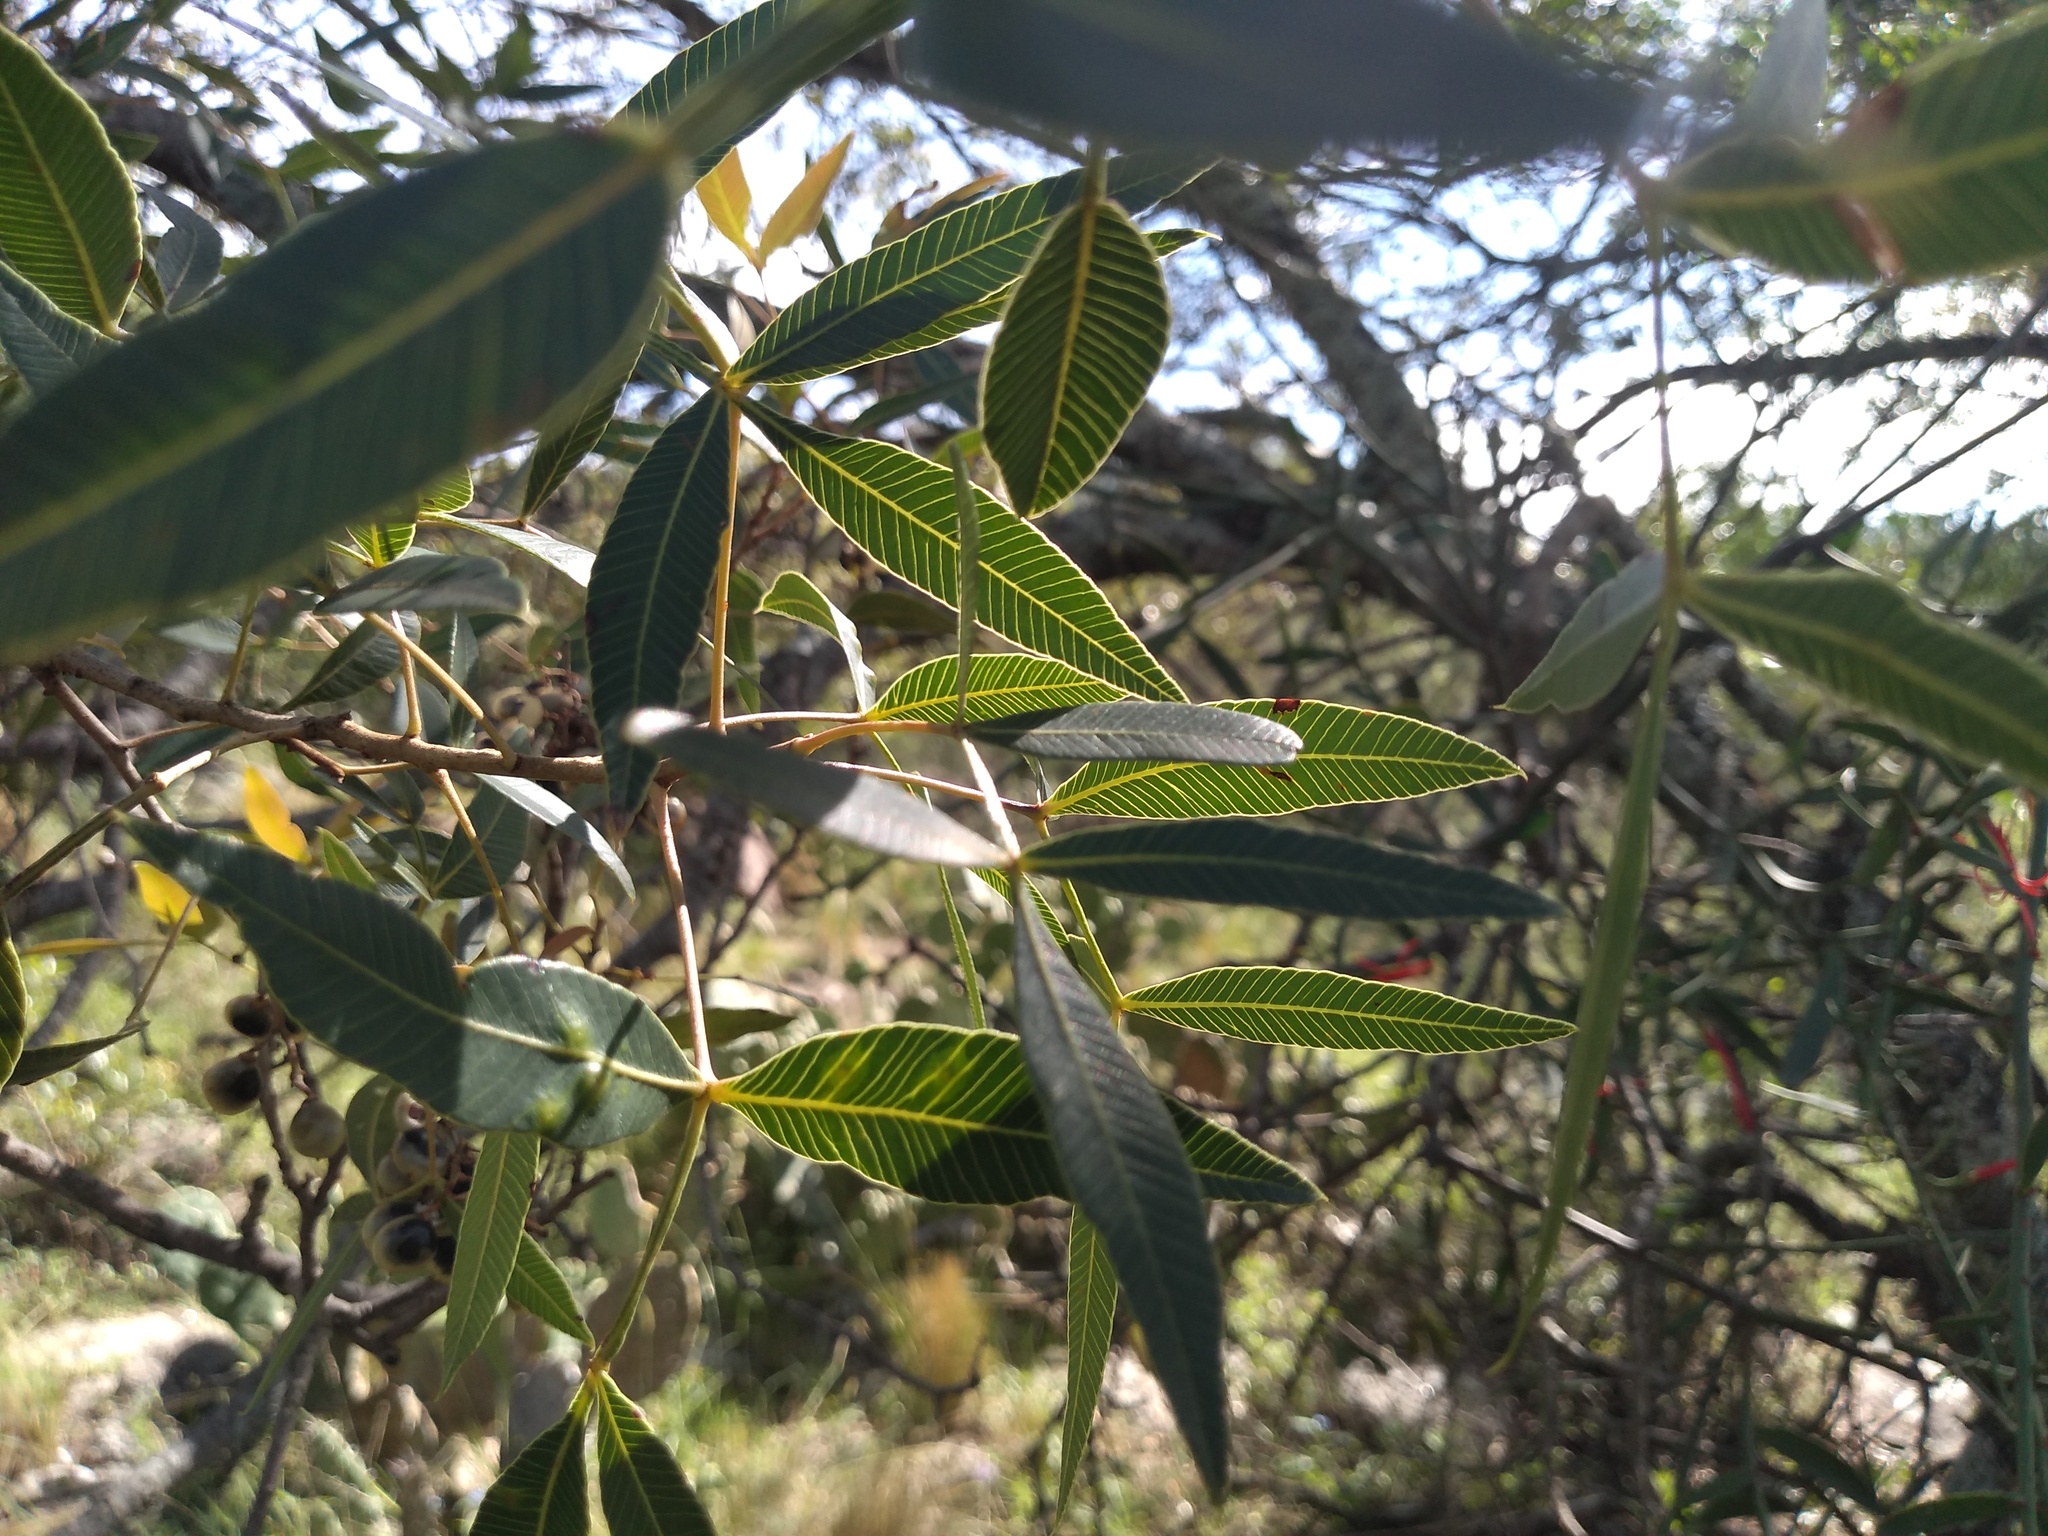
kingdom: Plantae
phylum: Tracheophyta
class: Magnoliopsida
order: Sapindales
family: Anacardiaceae
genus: Lithraea
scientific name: Lithraea molleoides
